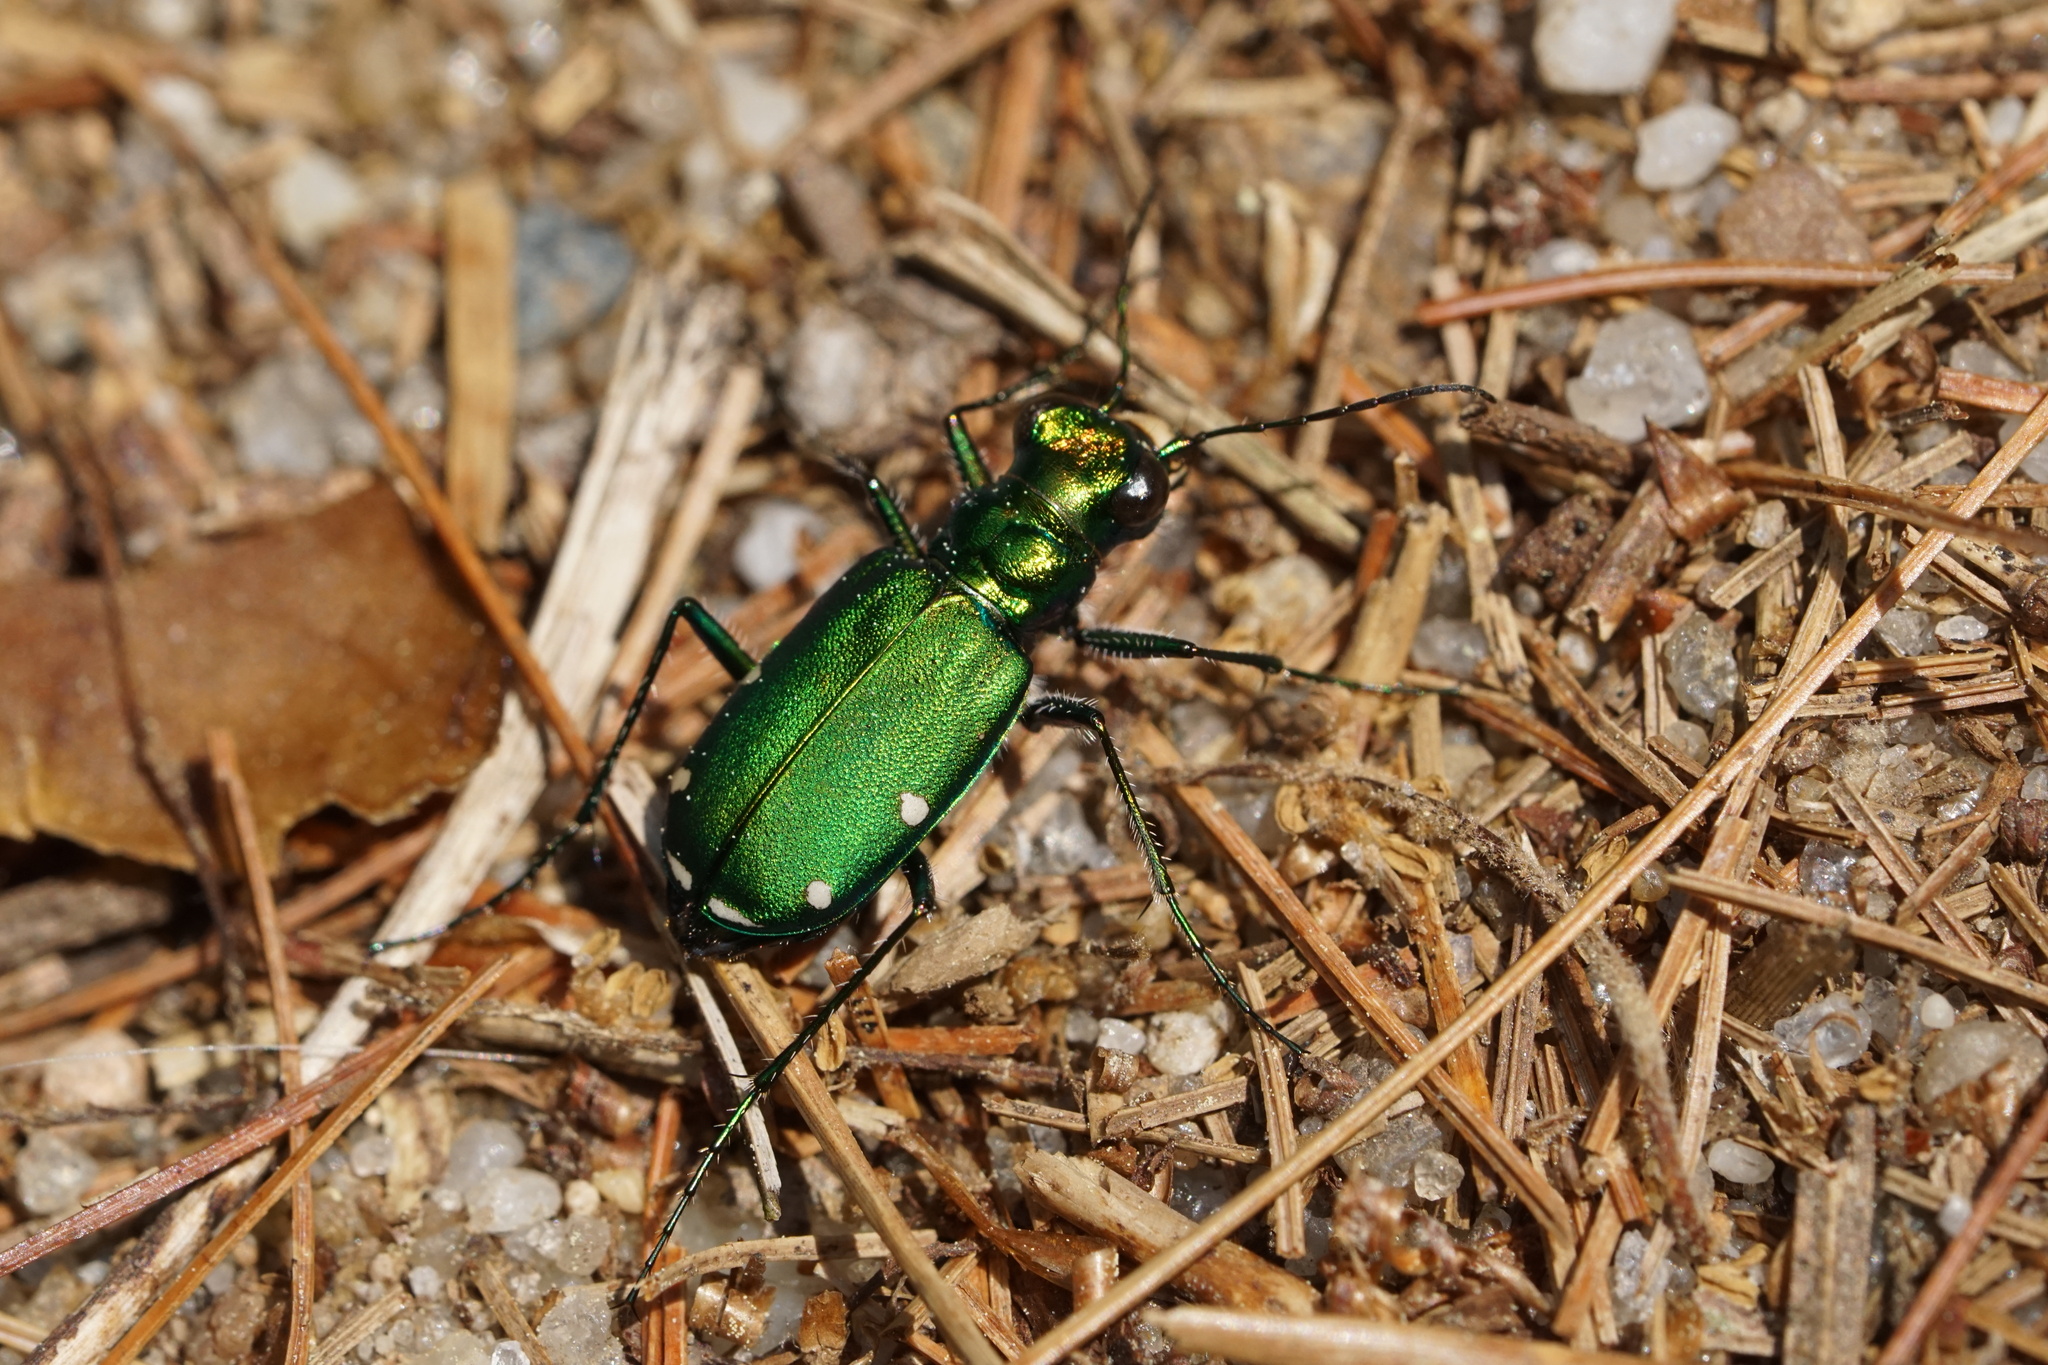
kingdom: Animalia
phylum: Arthropoda
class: Insecta
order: Coleoptera
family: Carabidae
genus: Cicindela
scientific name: Cicindela sexguttata
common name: Six-spotted tiger beetle
